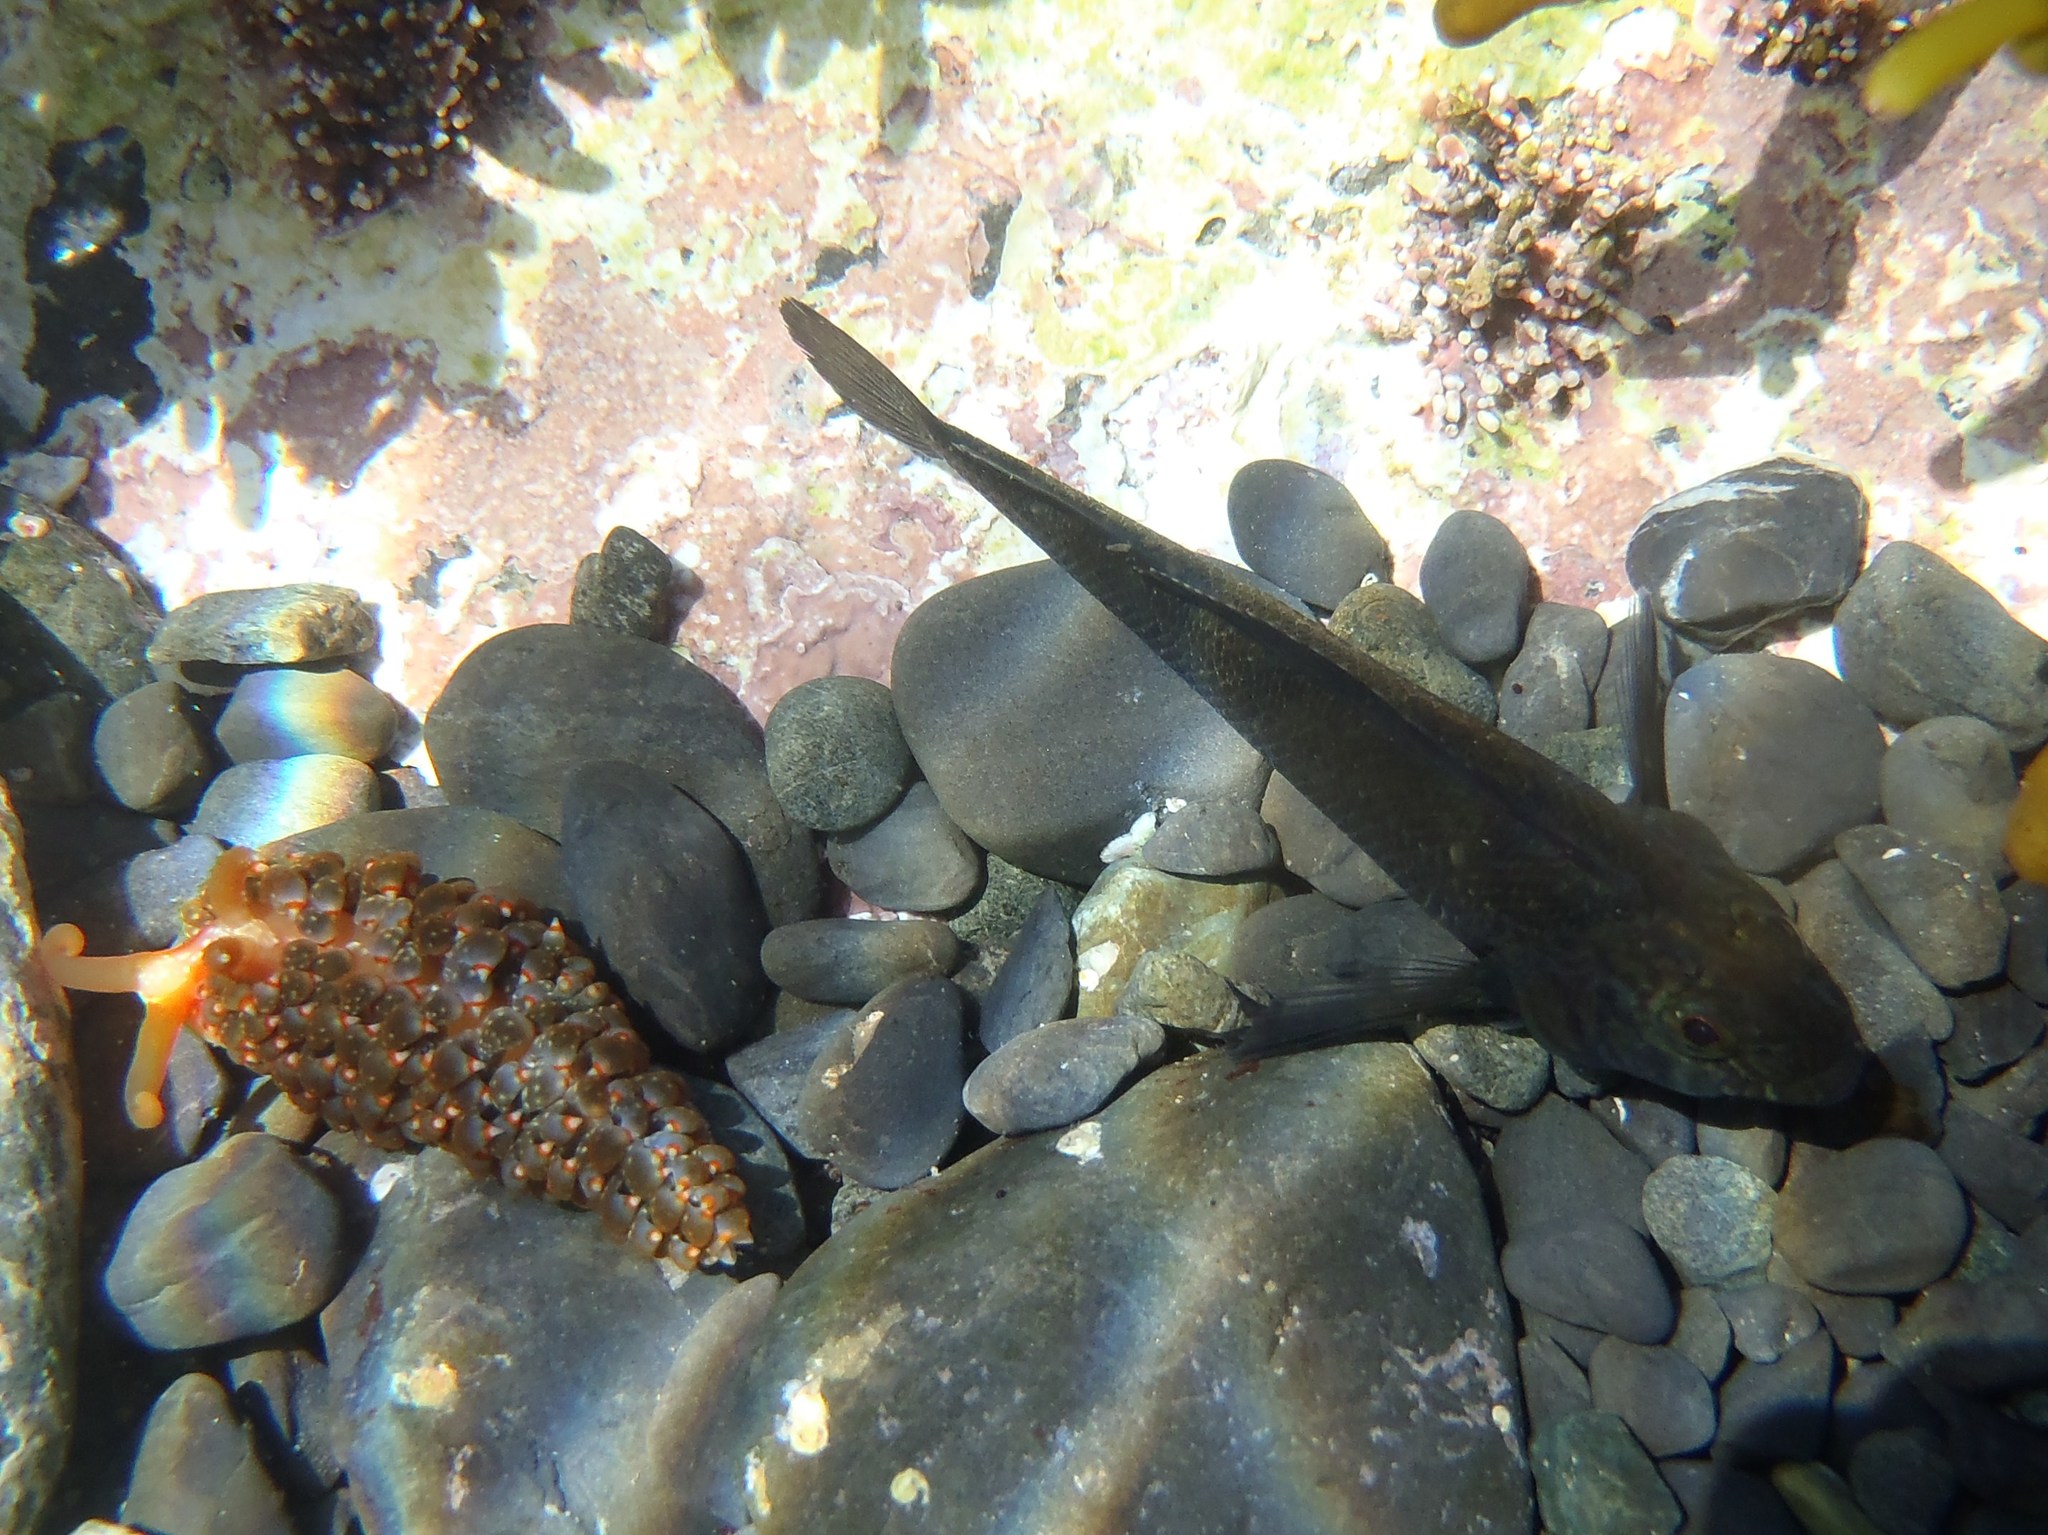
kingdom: Animalia
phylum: Chordata
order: Perciformes
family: Tripterygiidae
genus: Forsterygion
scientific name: Forsterygion lapillum
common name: Common triplefin
